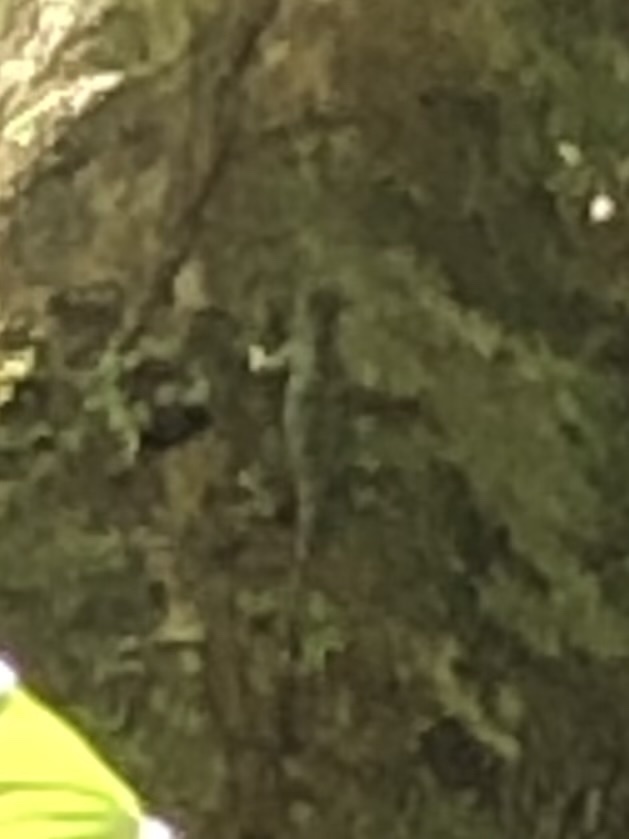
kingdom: Animalia
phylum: Chordata
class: Squamata
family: Tropiduridae
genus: Plica
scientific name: Plica plica
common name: Tree runner
